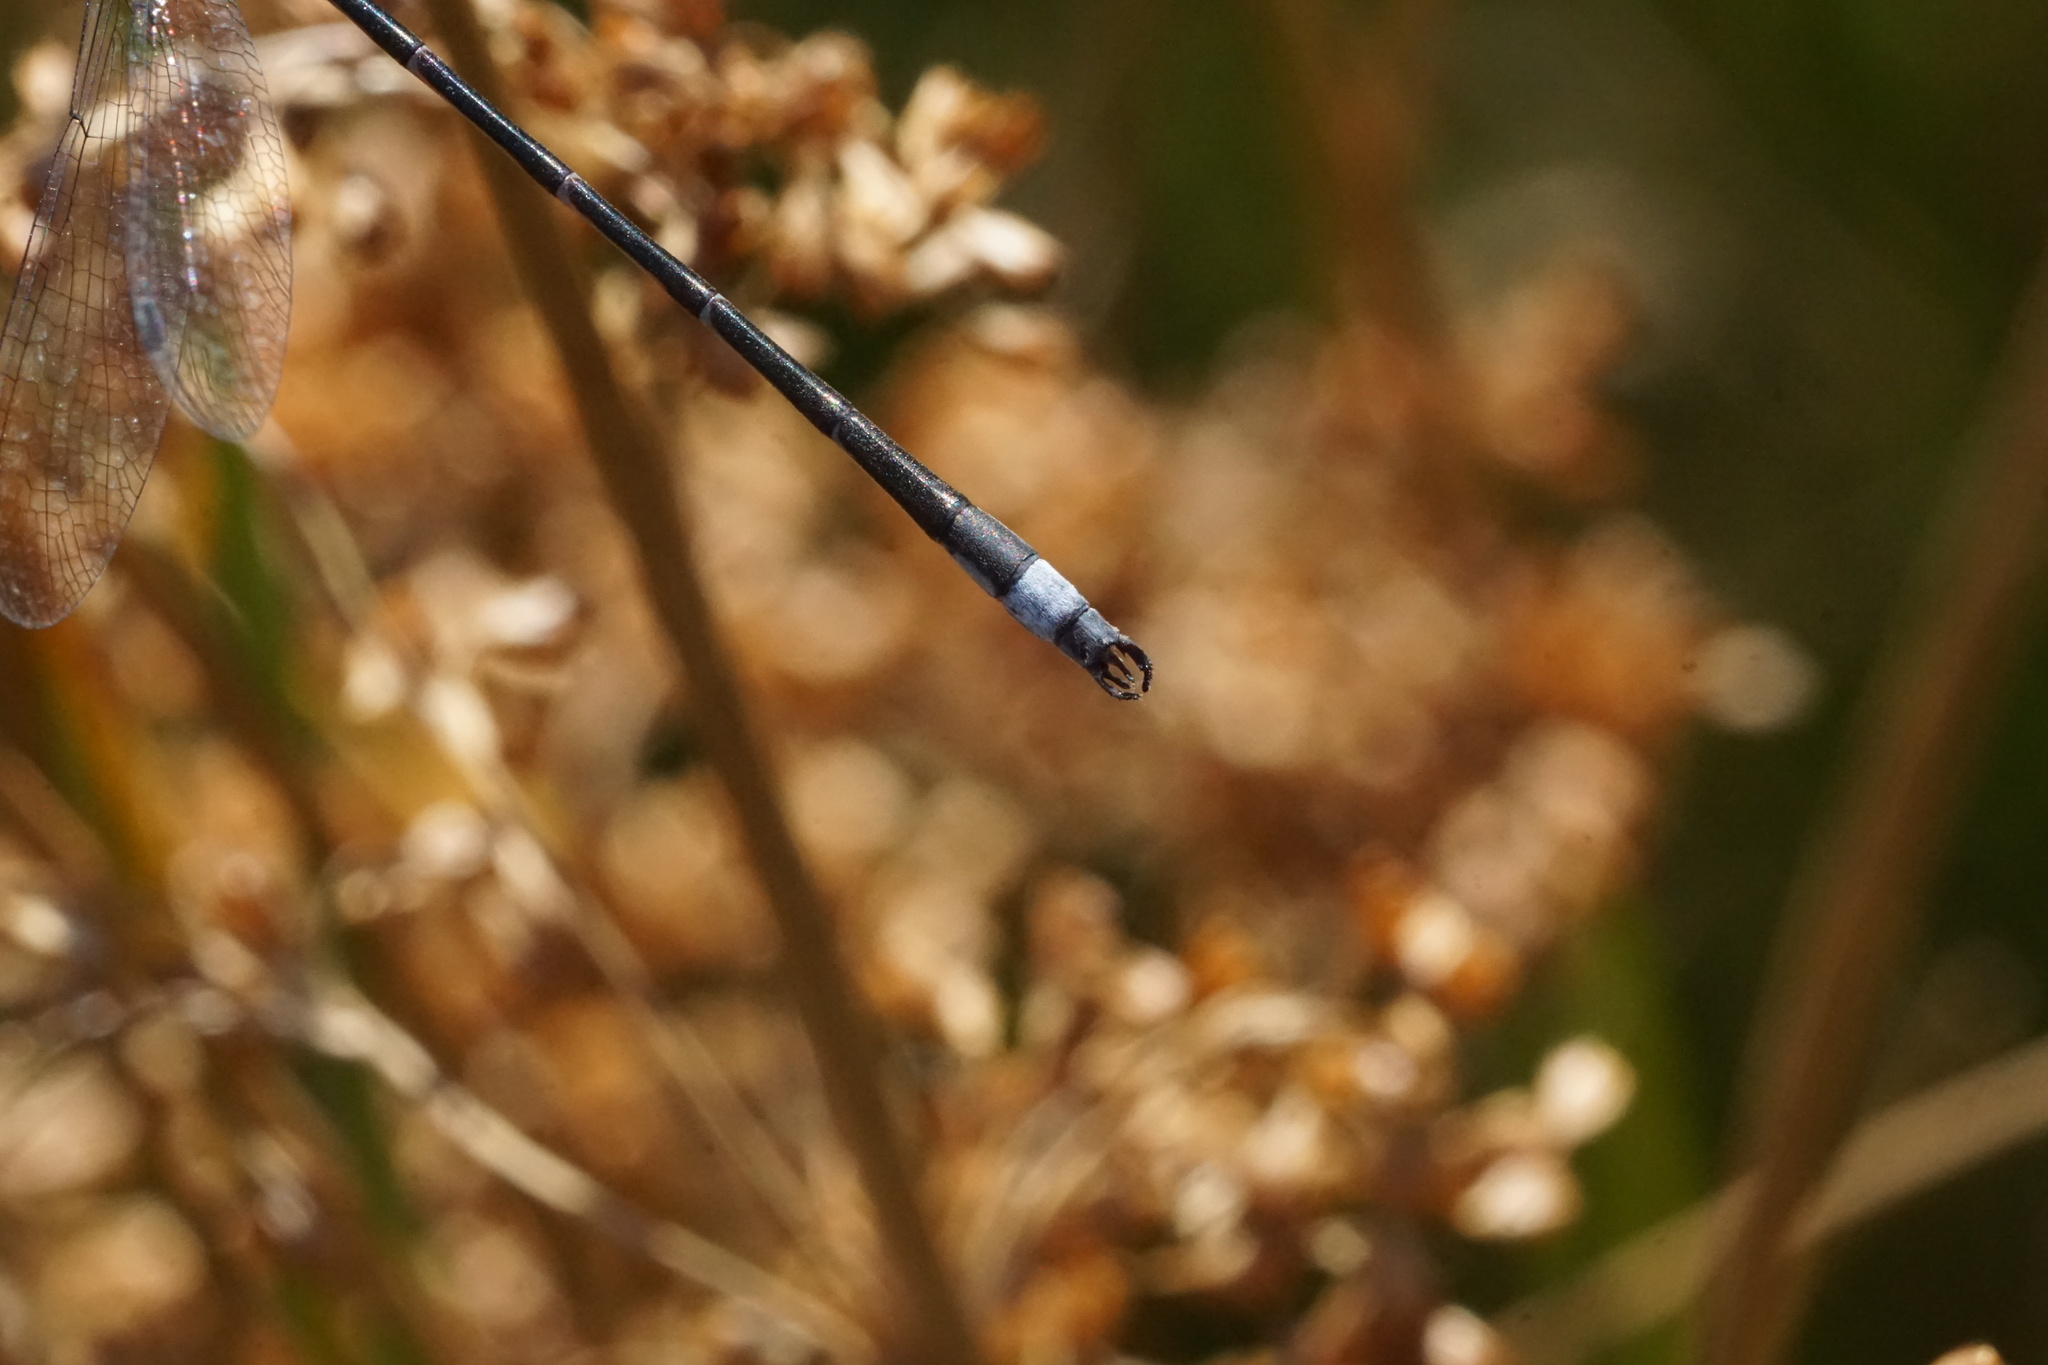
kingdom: Animalia
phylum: Arthropoda
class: Insecta
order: Odonata
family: Lestidae
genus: Lestes
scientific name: Lestes forcipatus
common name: Sweetflag spreadwing
